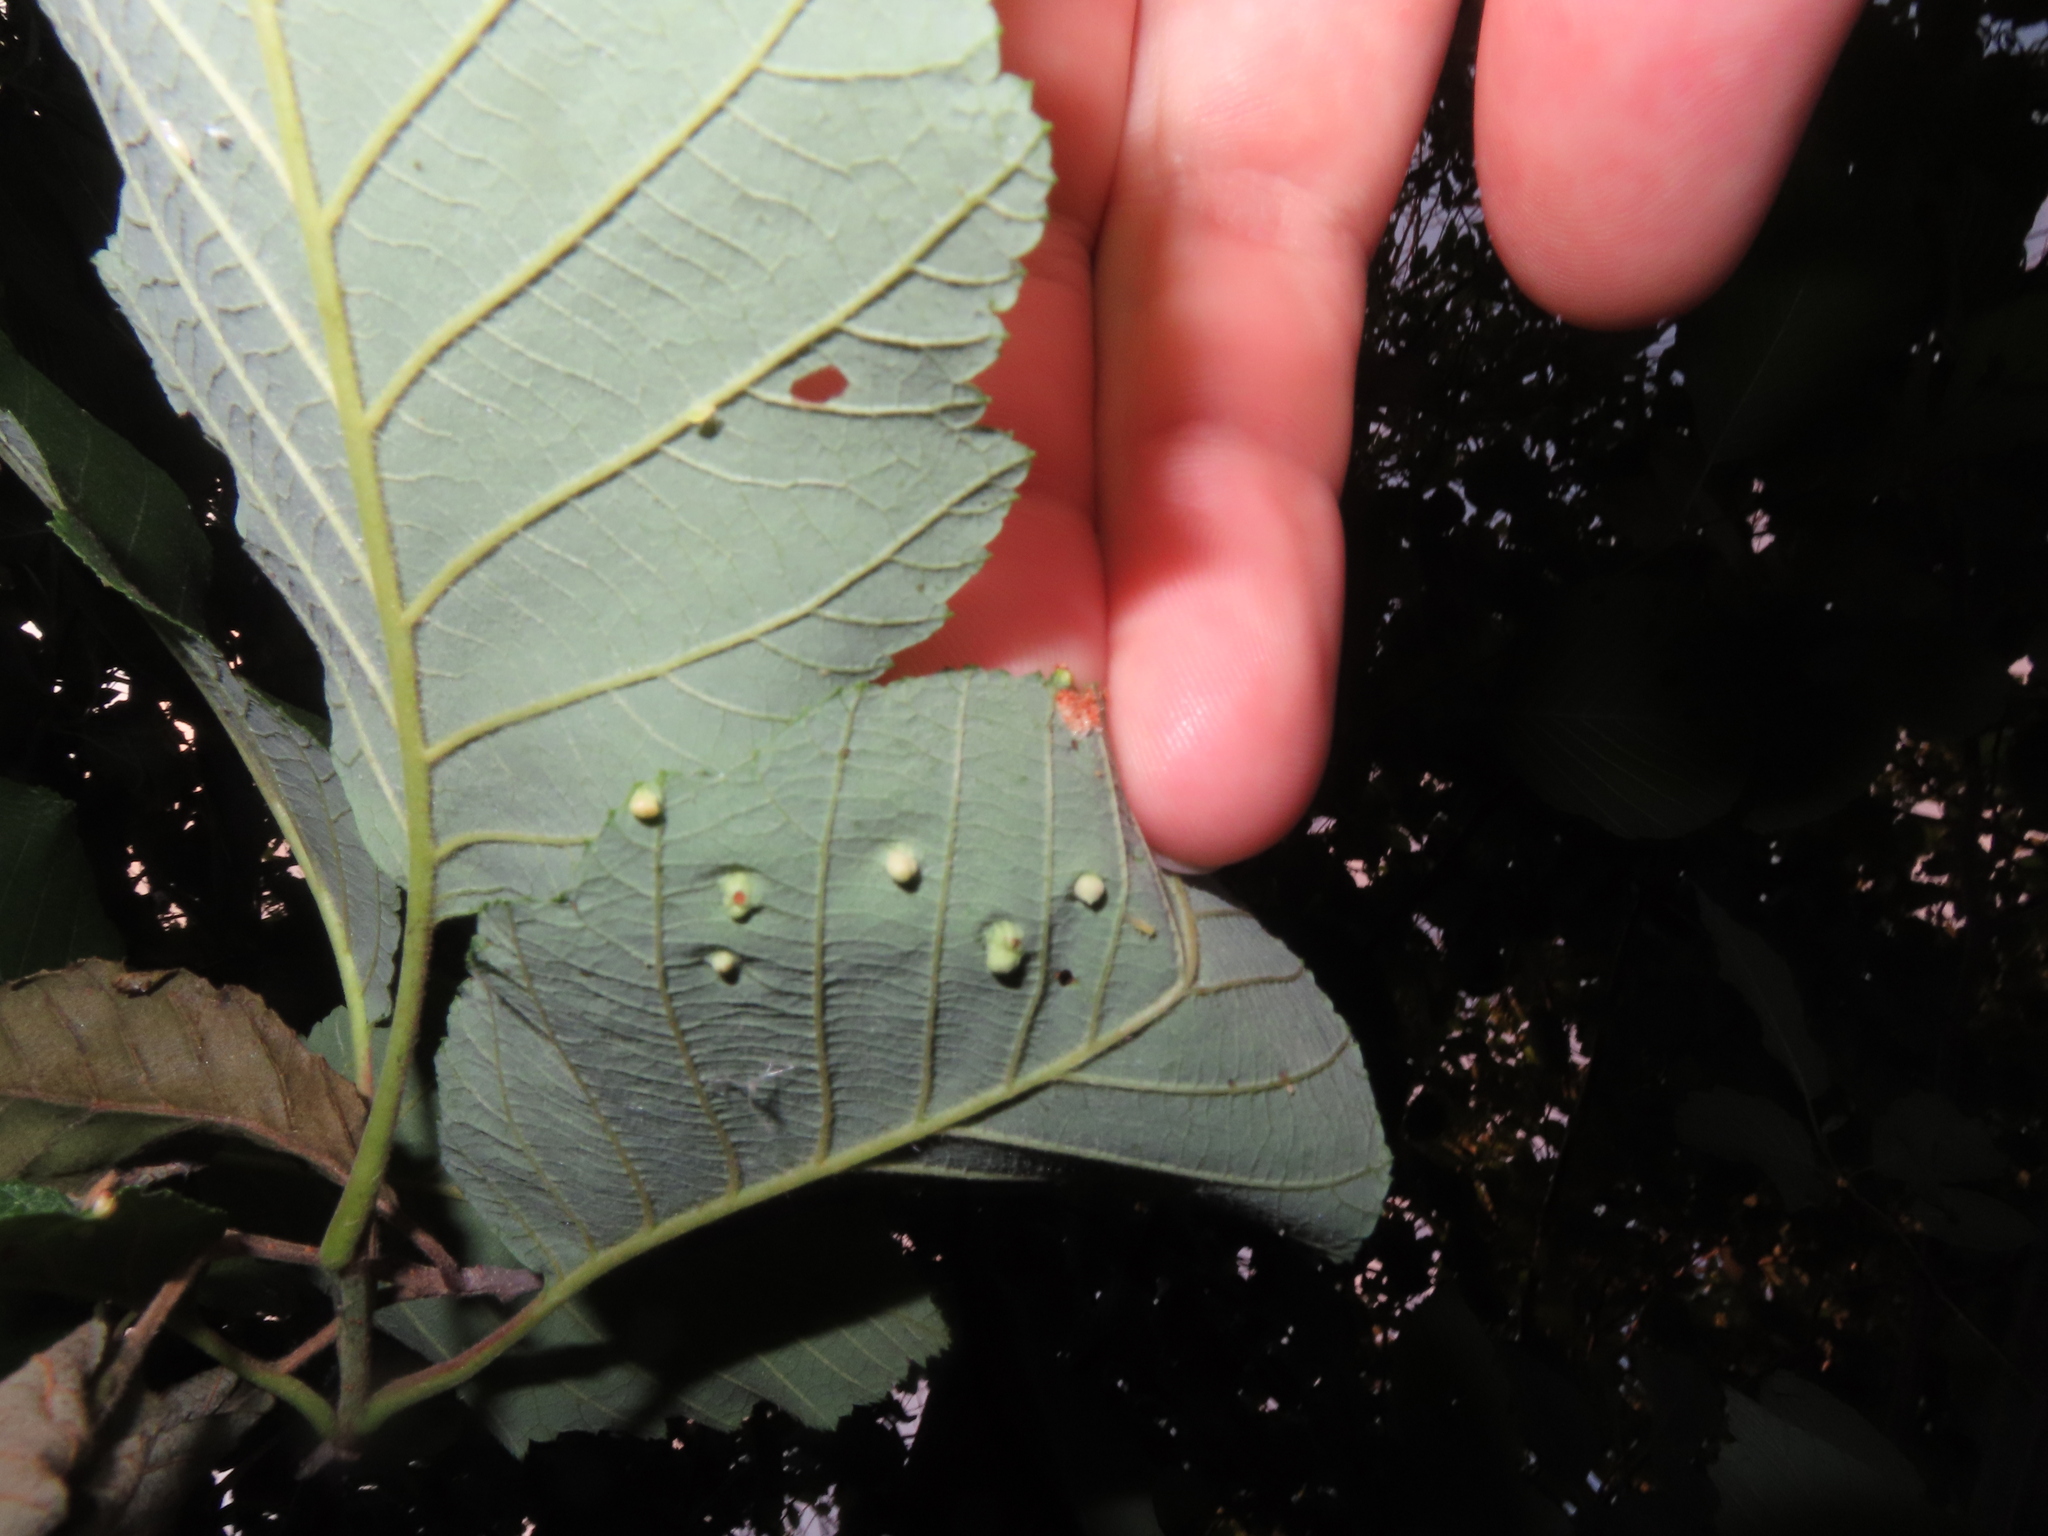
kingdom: Animalia
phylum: Arthropoda
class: Arachnida
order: Trombidiformes
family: Eriophyidae
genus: Eriophyes
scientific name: Eriophyes laevis
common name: Alder leaf gall mite
